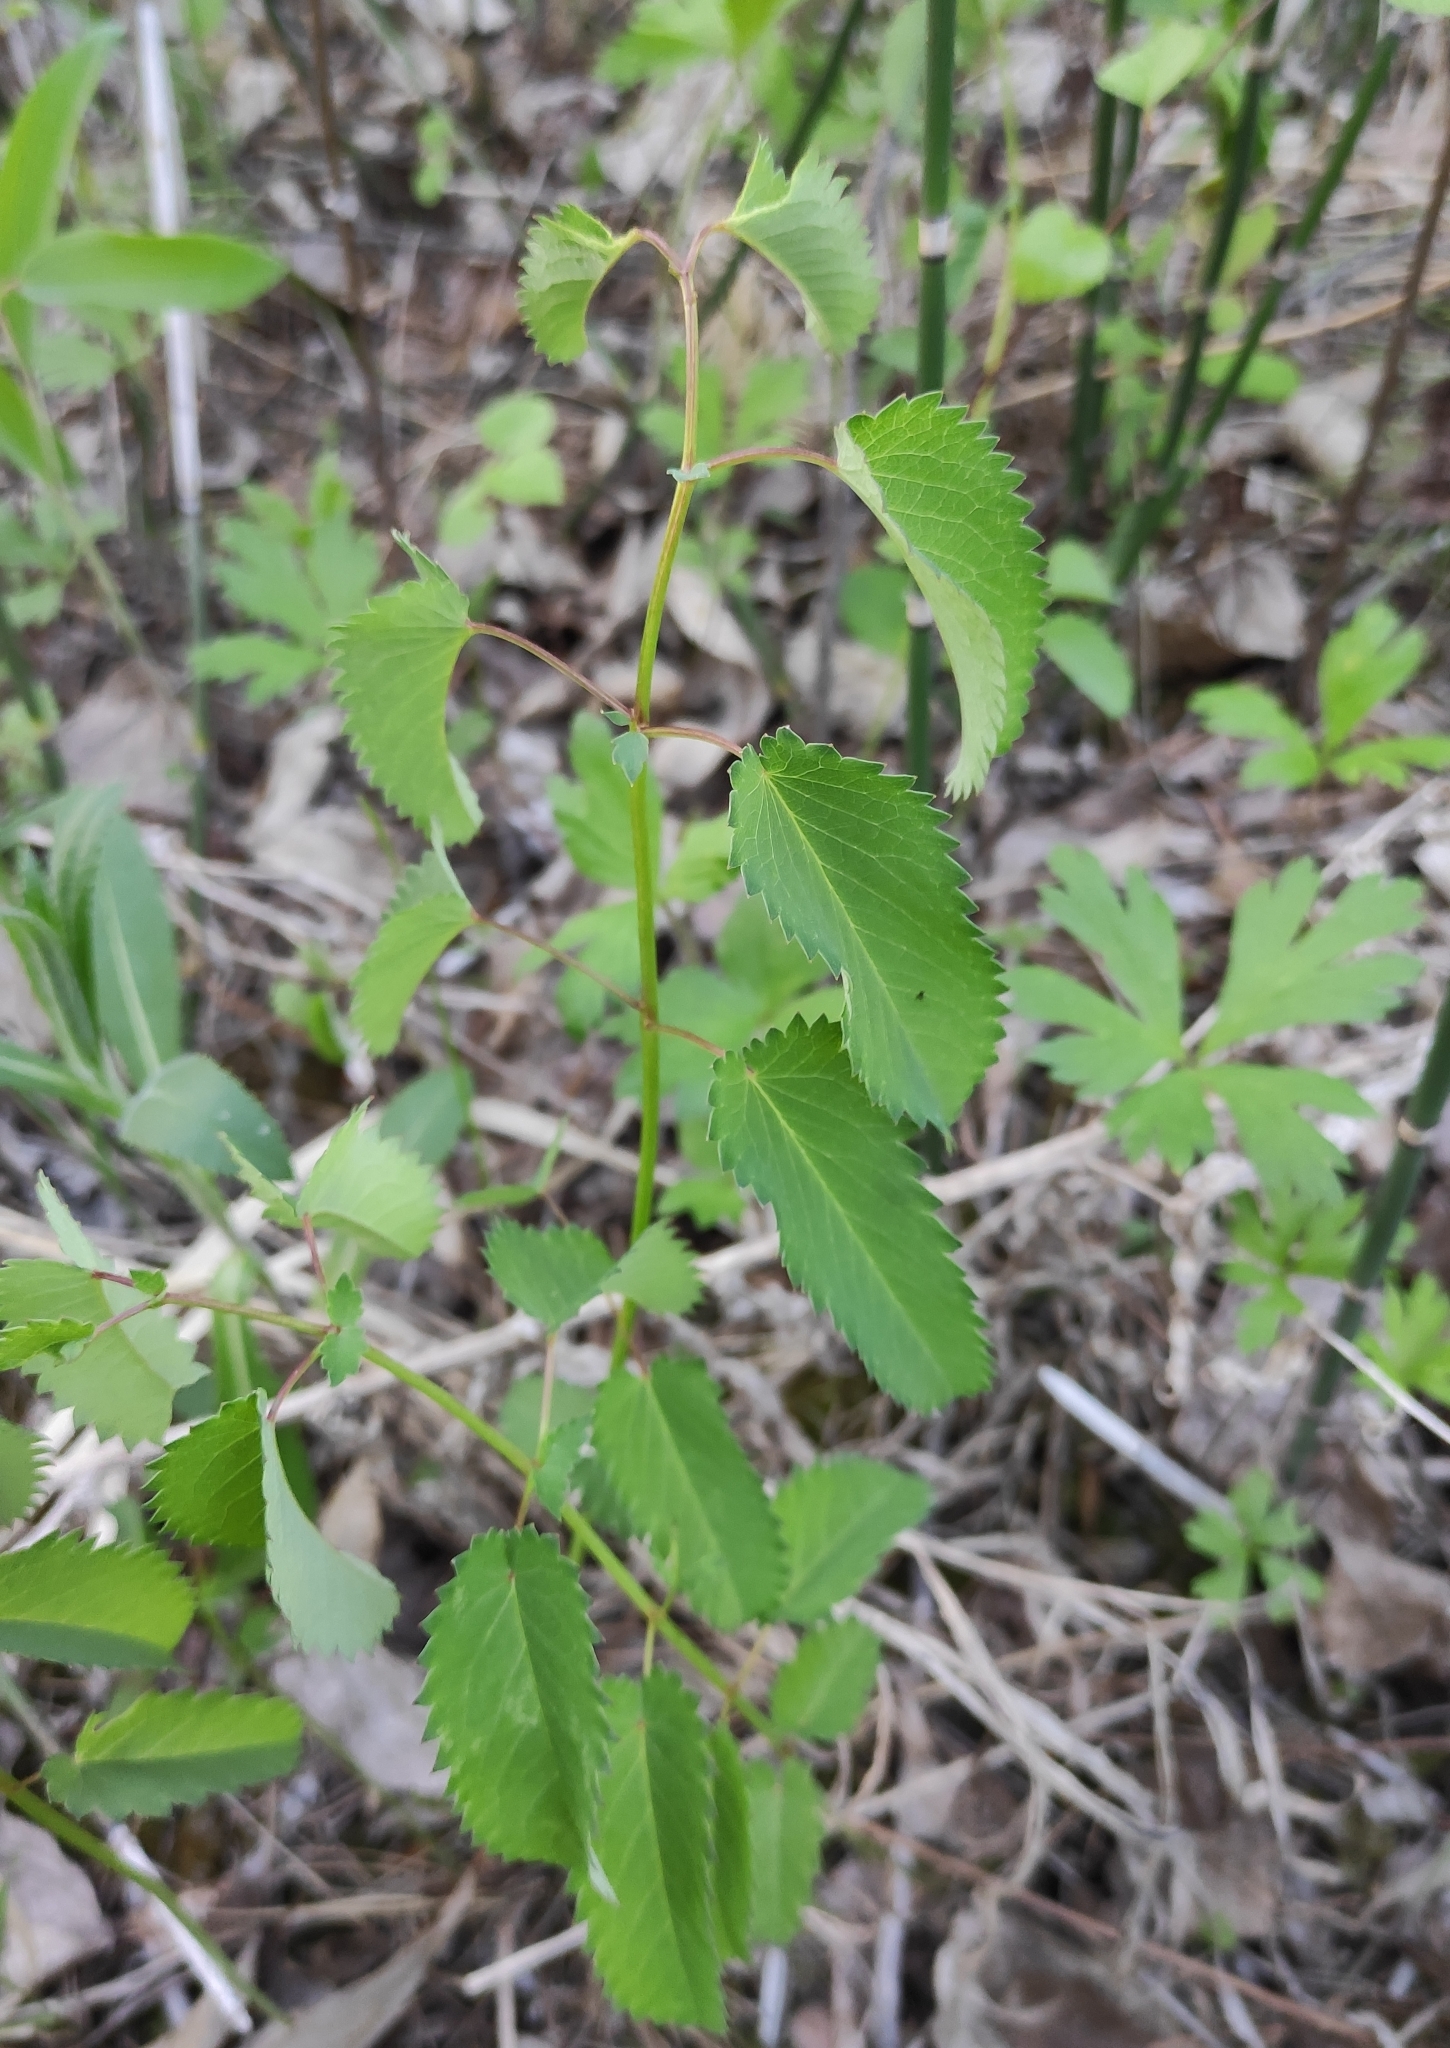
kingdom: Plantae
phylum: Tracheophyta
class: Magnoliopsida
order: Rosales
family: Rosaceae
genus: Sanguisorba
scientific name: Sanguisorba officinalis
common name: Great burnet
